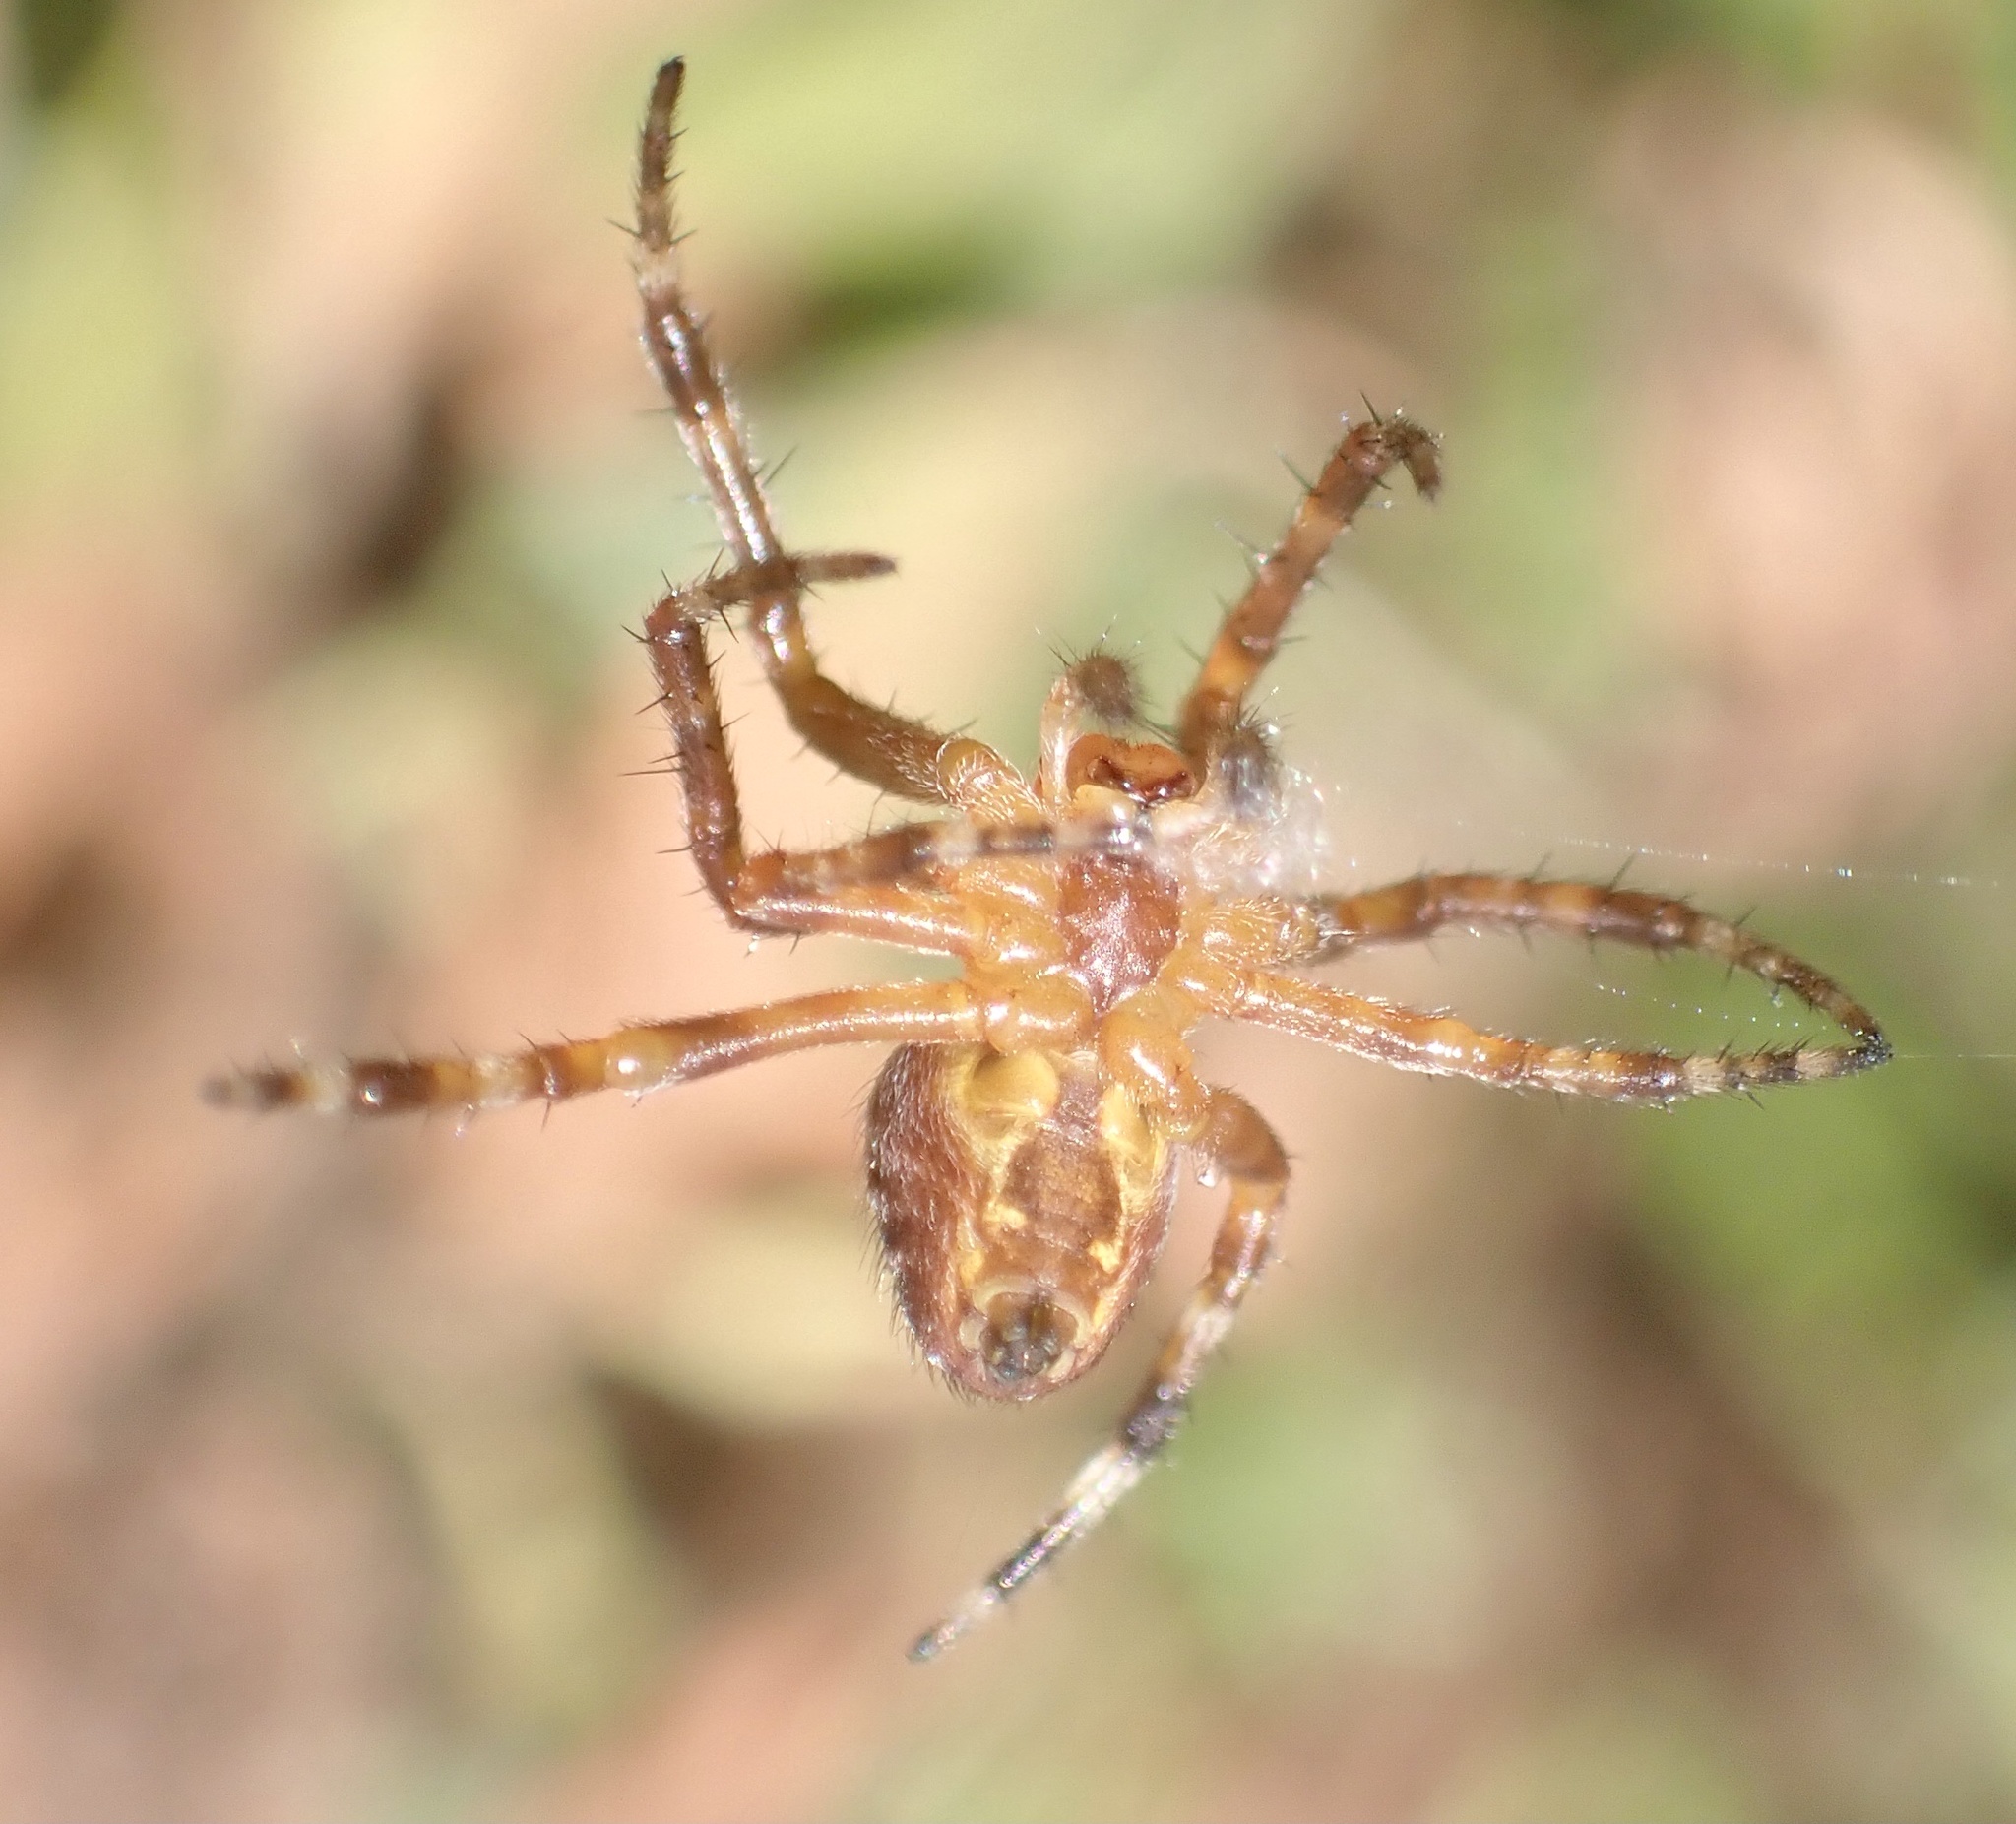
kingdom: Animalia
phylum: Arthropoda
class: Arachnida
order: Araneae
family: Araneidae
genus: Araneus
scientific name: Araneus diadematus
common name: Cross orbweaver
